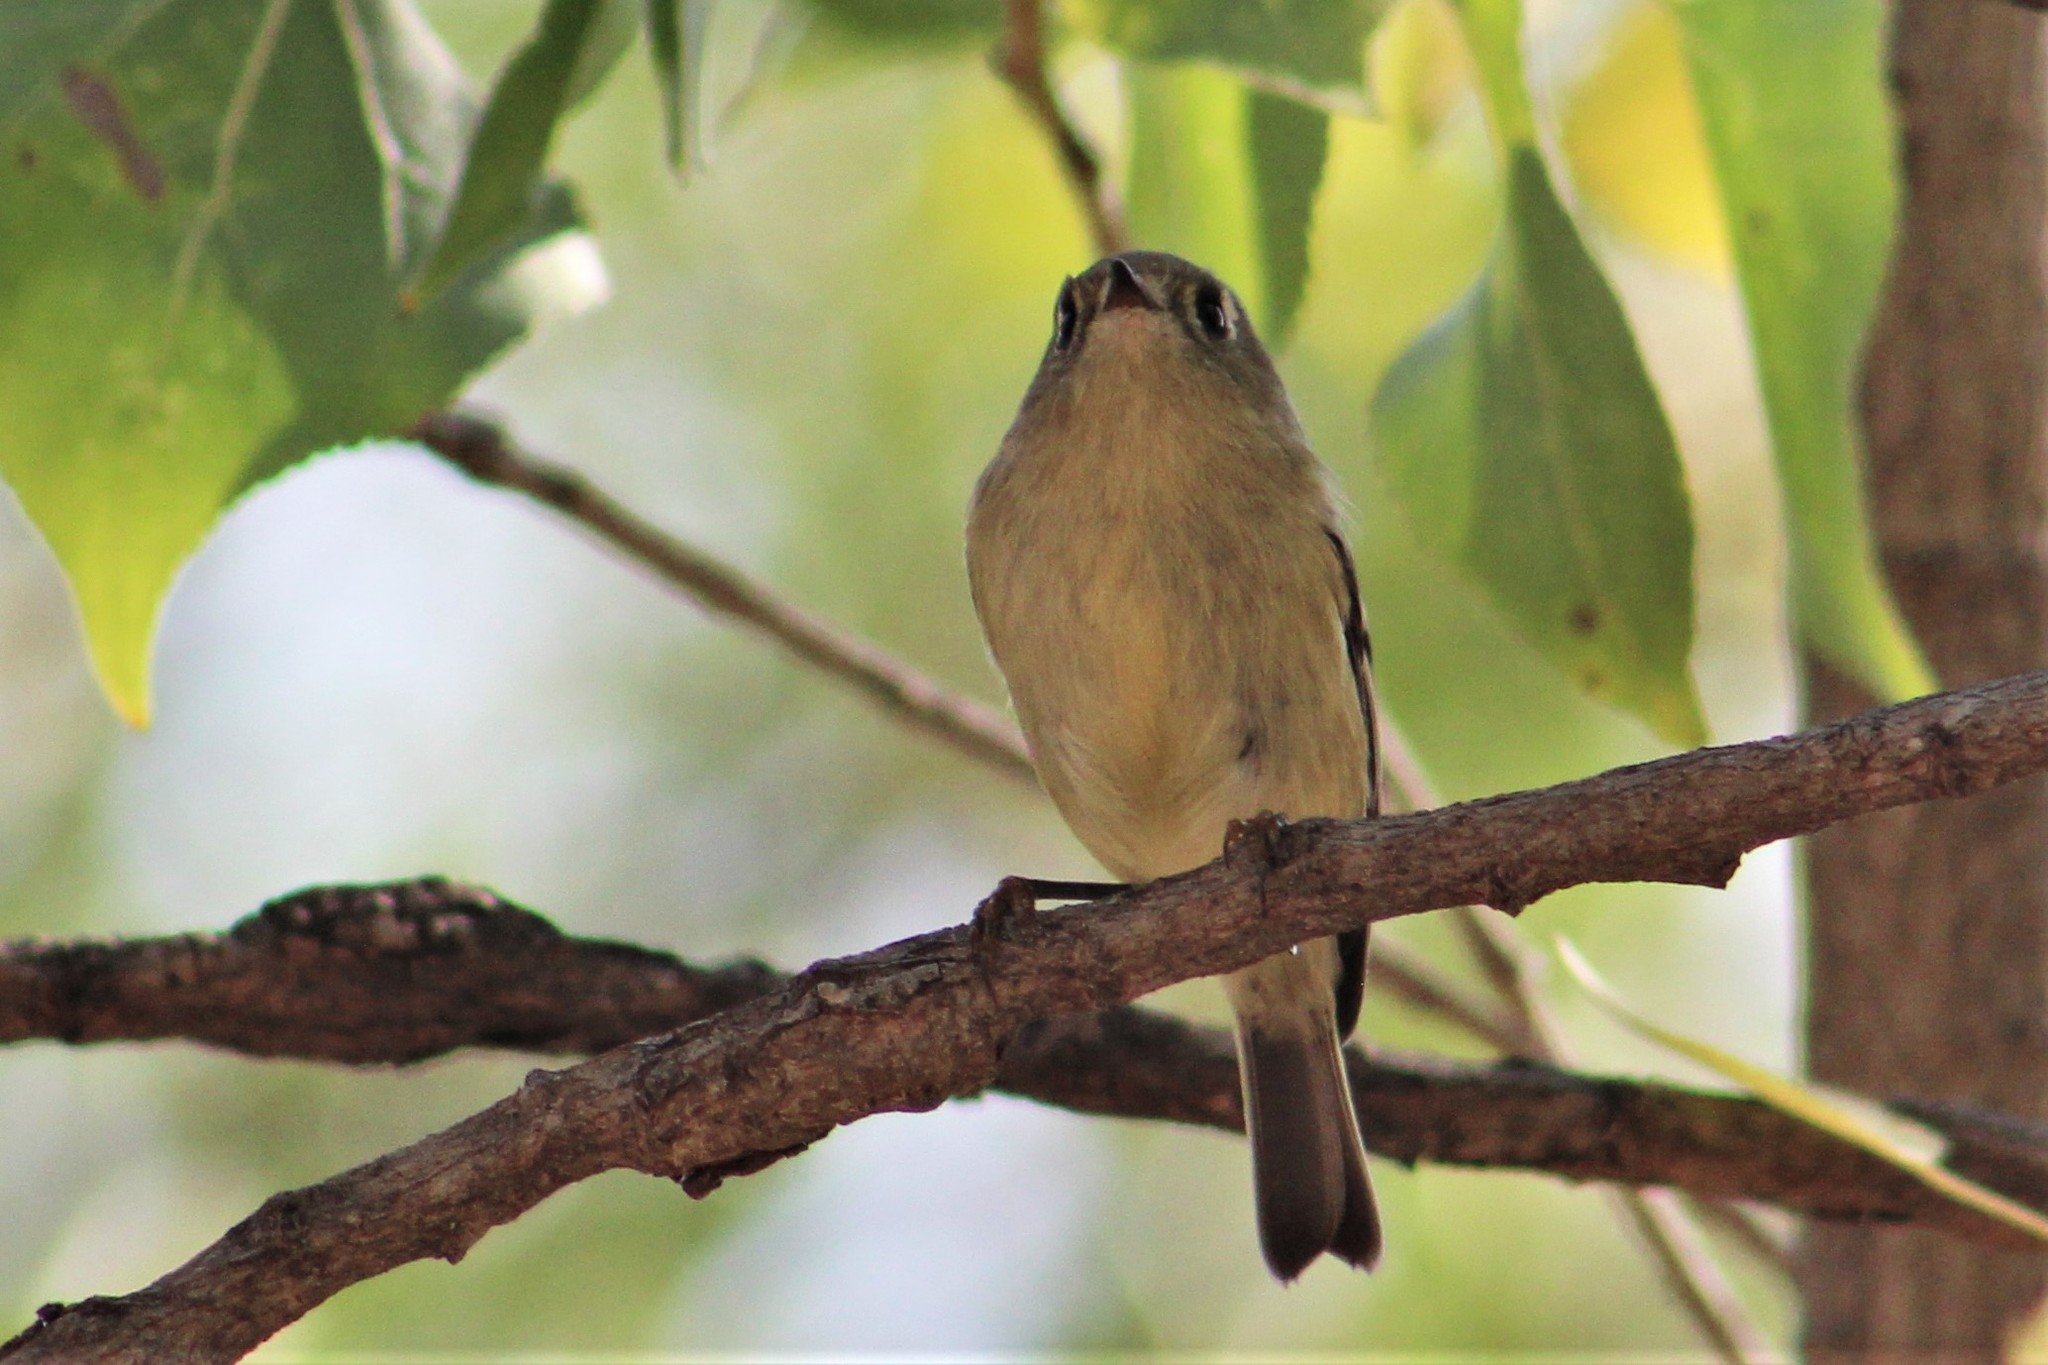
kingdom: Animalia
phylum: Chordata
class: Aves
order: Passeriformes
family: Regulidae
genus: Regulus
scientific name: Regulus calendula
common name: Ruby-crowned kinglet
